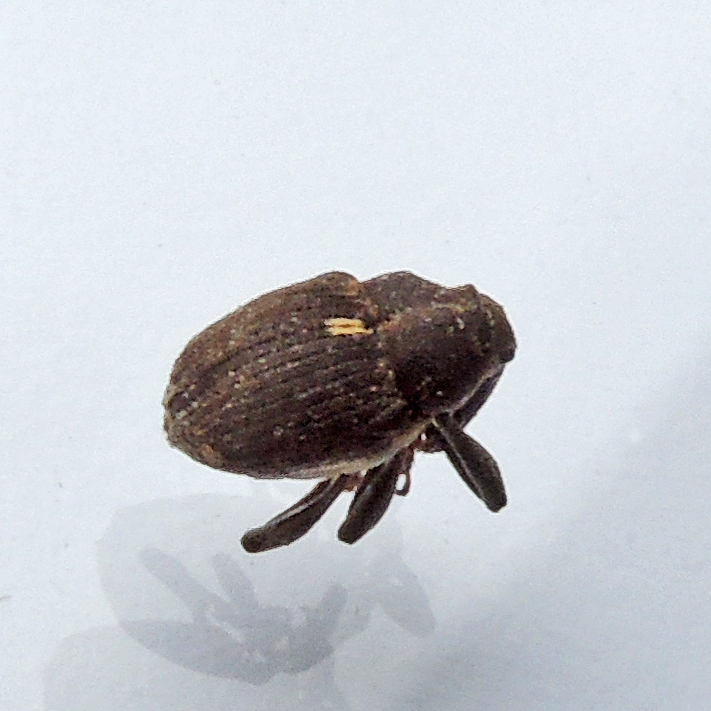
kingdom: Animalia
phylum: Arthropoda
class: Insecta
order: Coleoptera
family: Curculionidae
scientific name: Curculionidae
